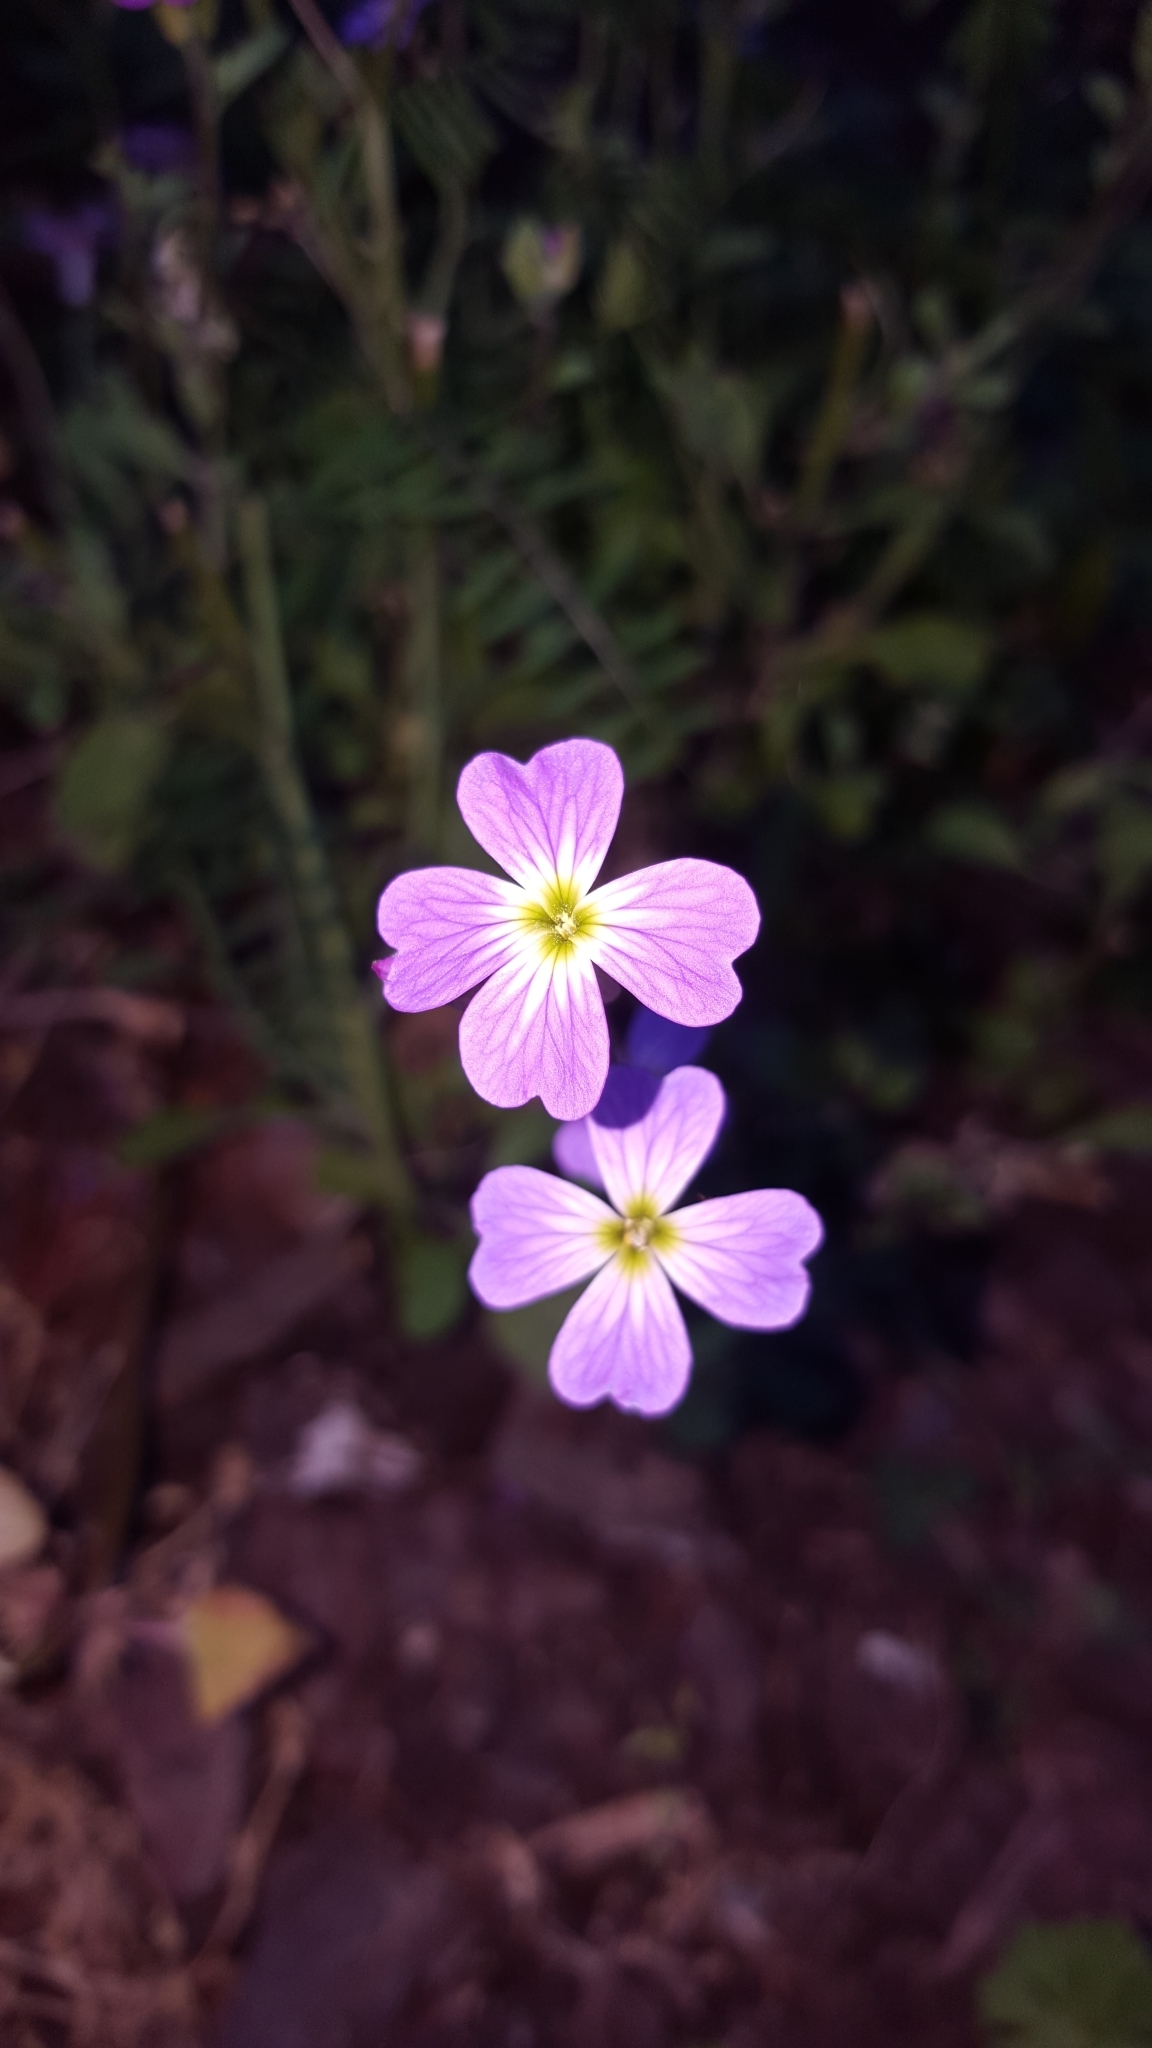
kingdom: Plantae
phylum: Tracheophyta
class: Magnoliopsida
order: Brassicales
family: Brassicaceae
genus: Malcolmia
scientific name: Malcolmia maritima
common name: Virginia stock
